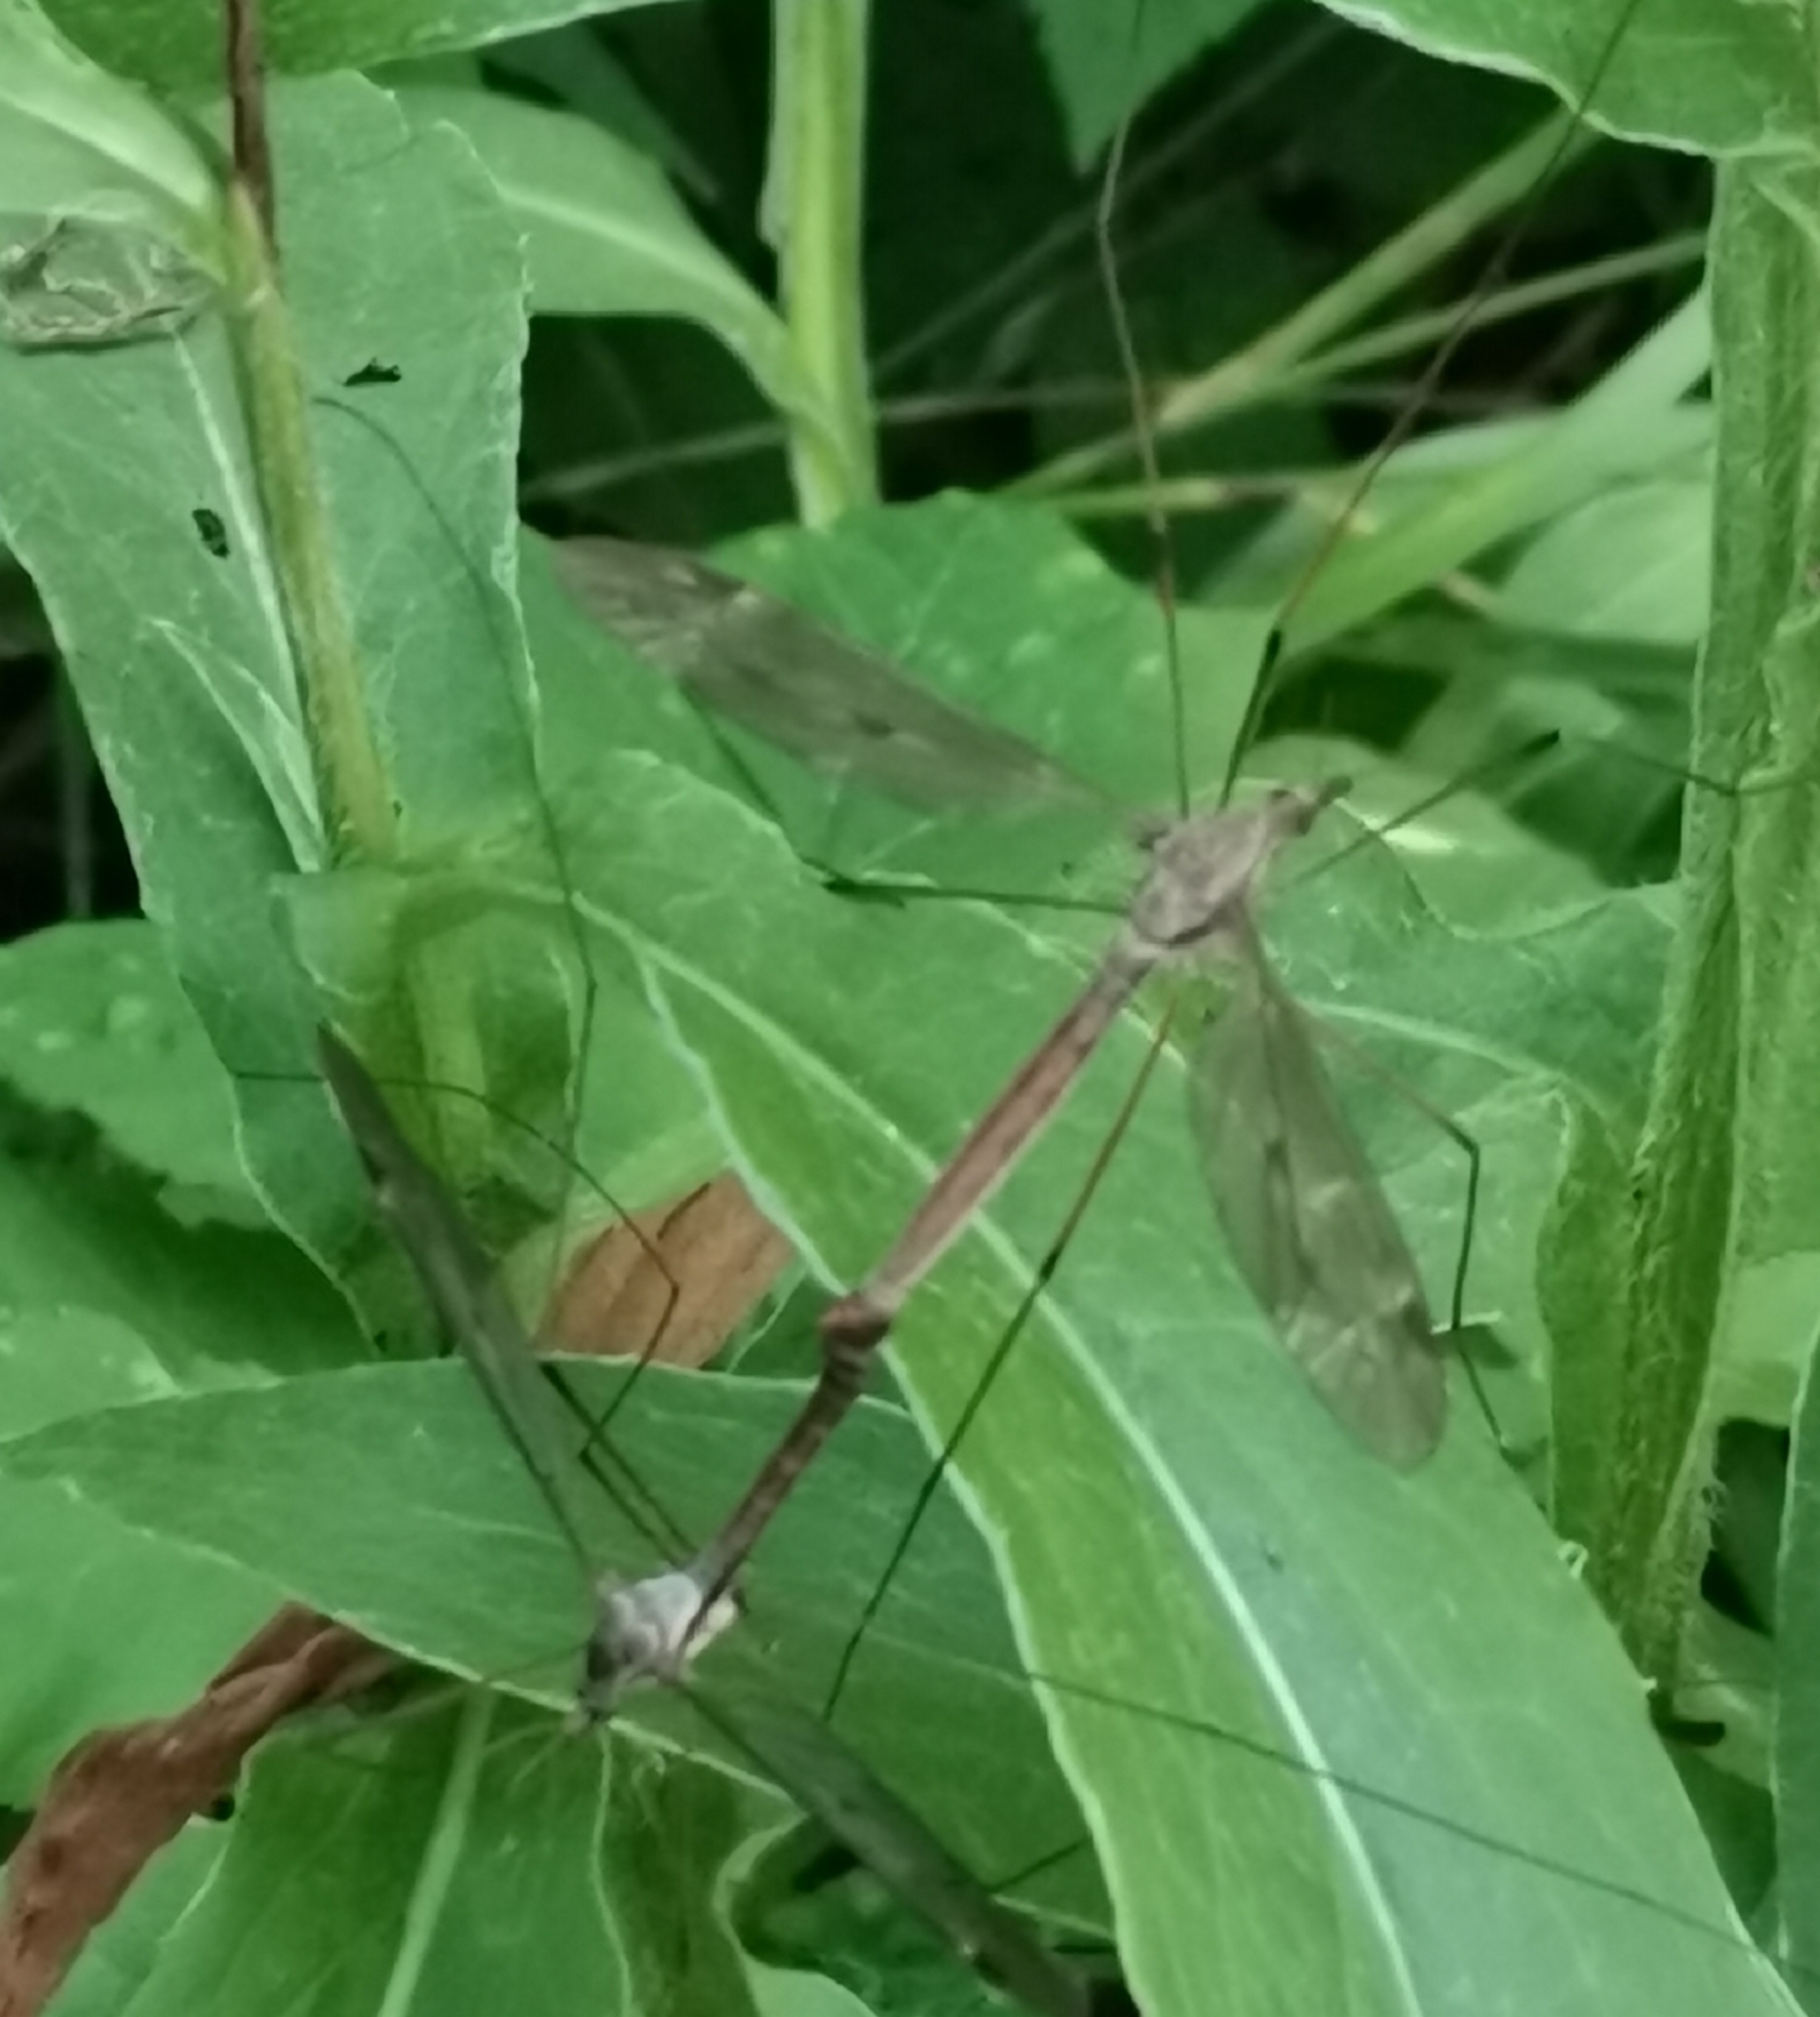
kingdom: Animalia
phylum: Arthropoda
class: Insecta
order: Diptera
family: Tipulidae
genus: Tipula
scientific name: Tipula fulvipennis
